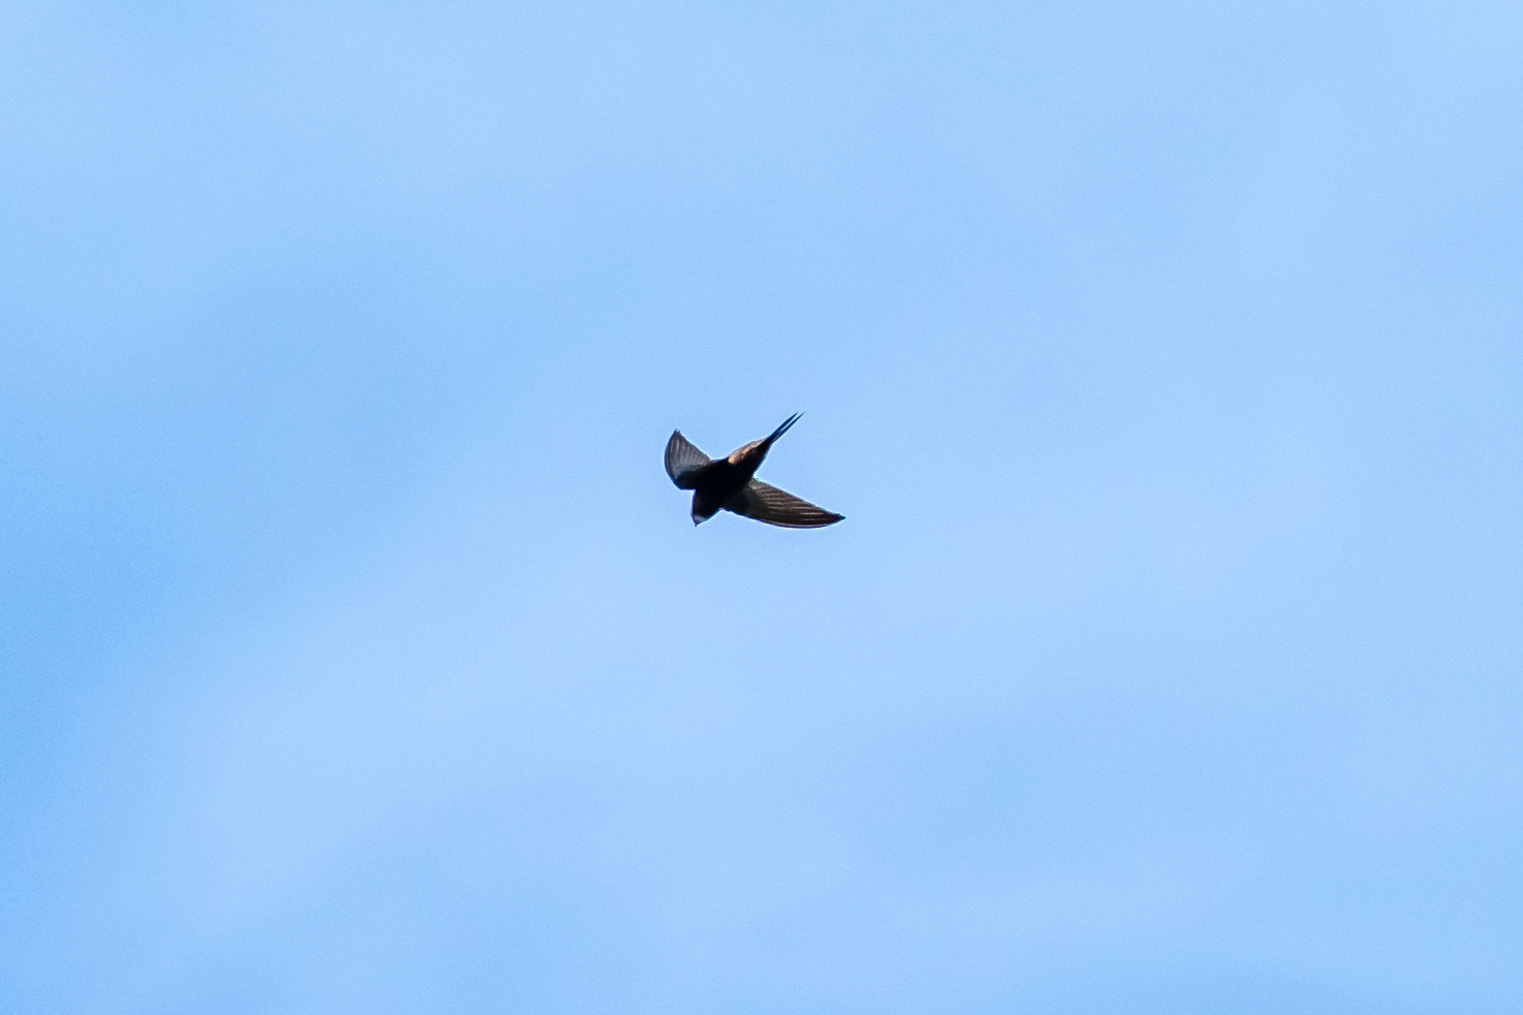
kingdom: Animalia
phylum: Chordata
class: Aves
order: Apodiformes
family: Apodidae
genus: Apus
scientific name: Apus apus
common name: Common swift
